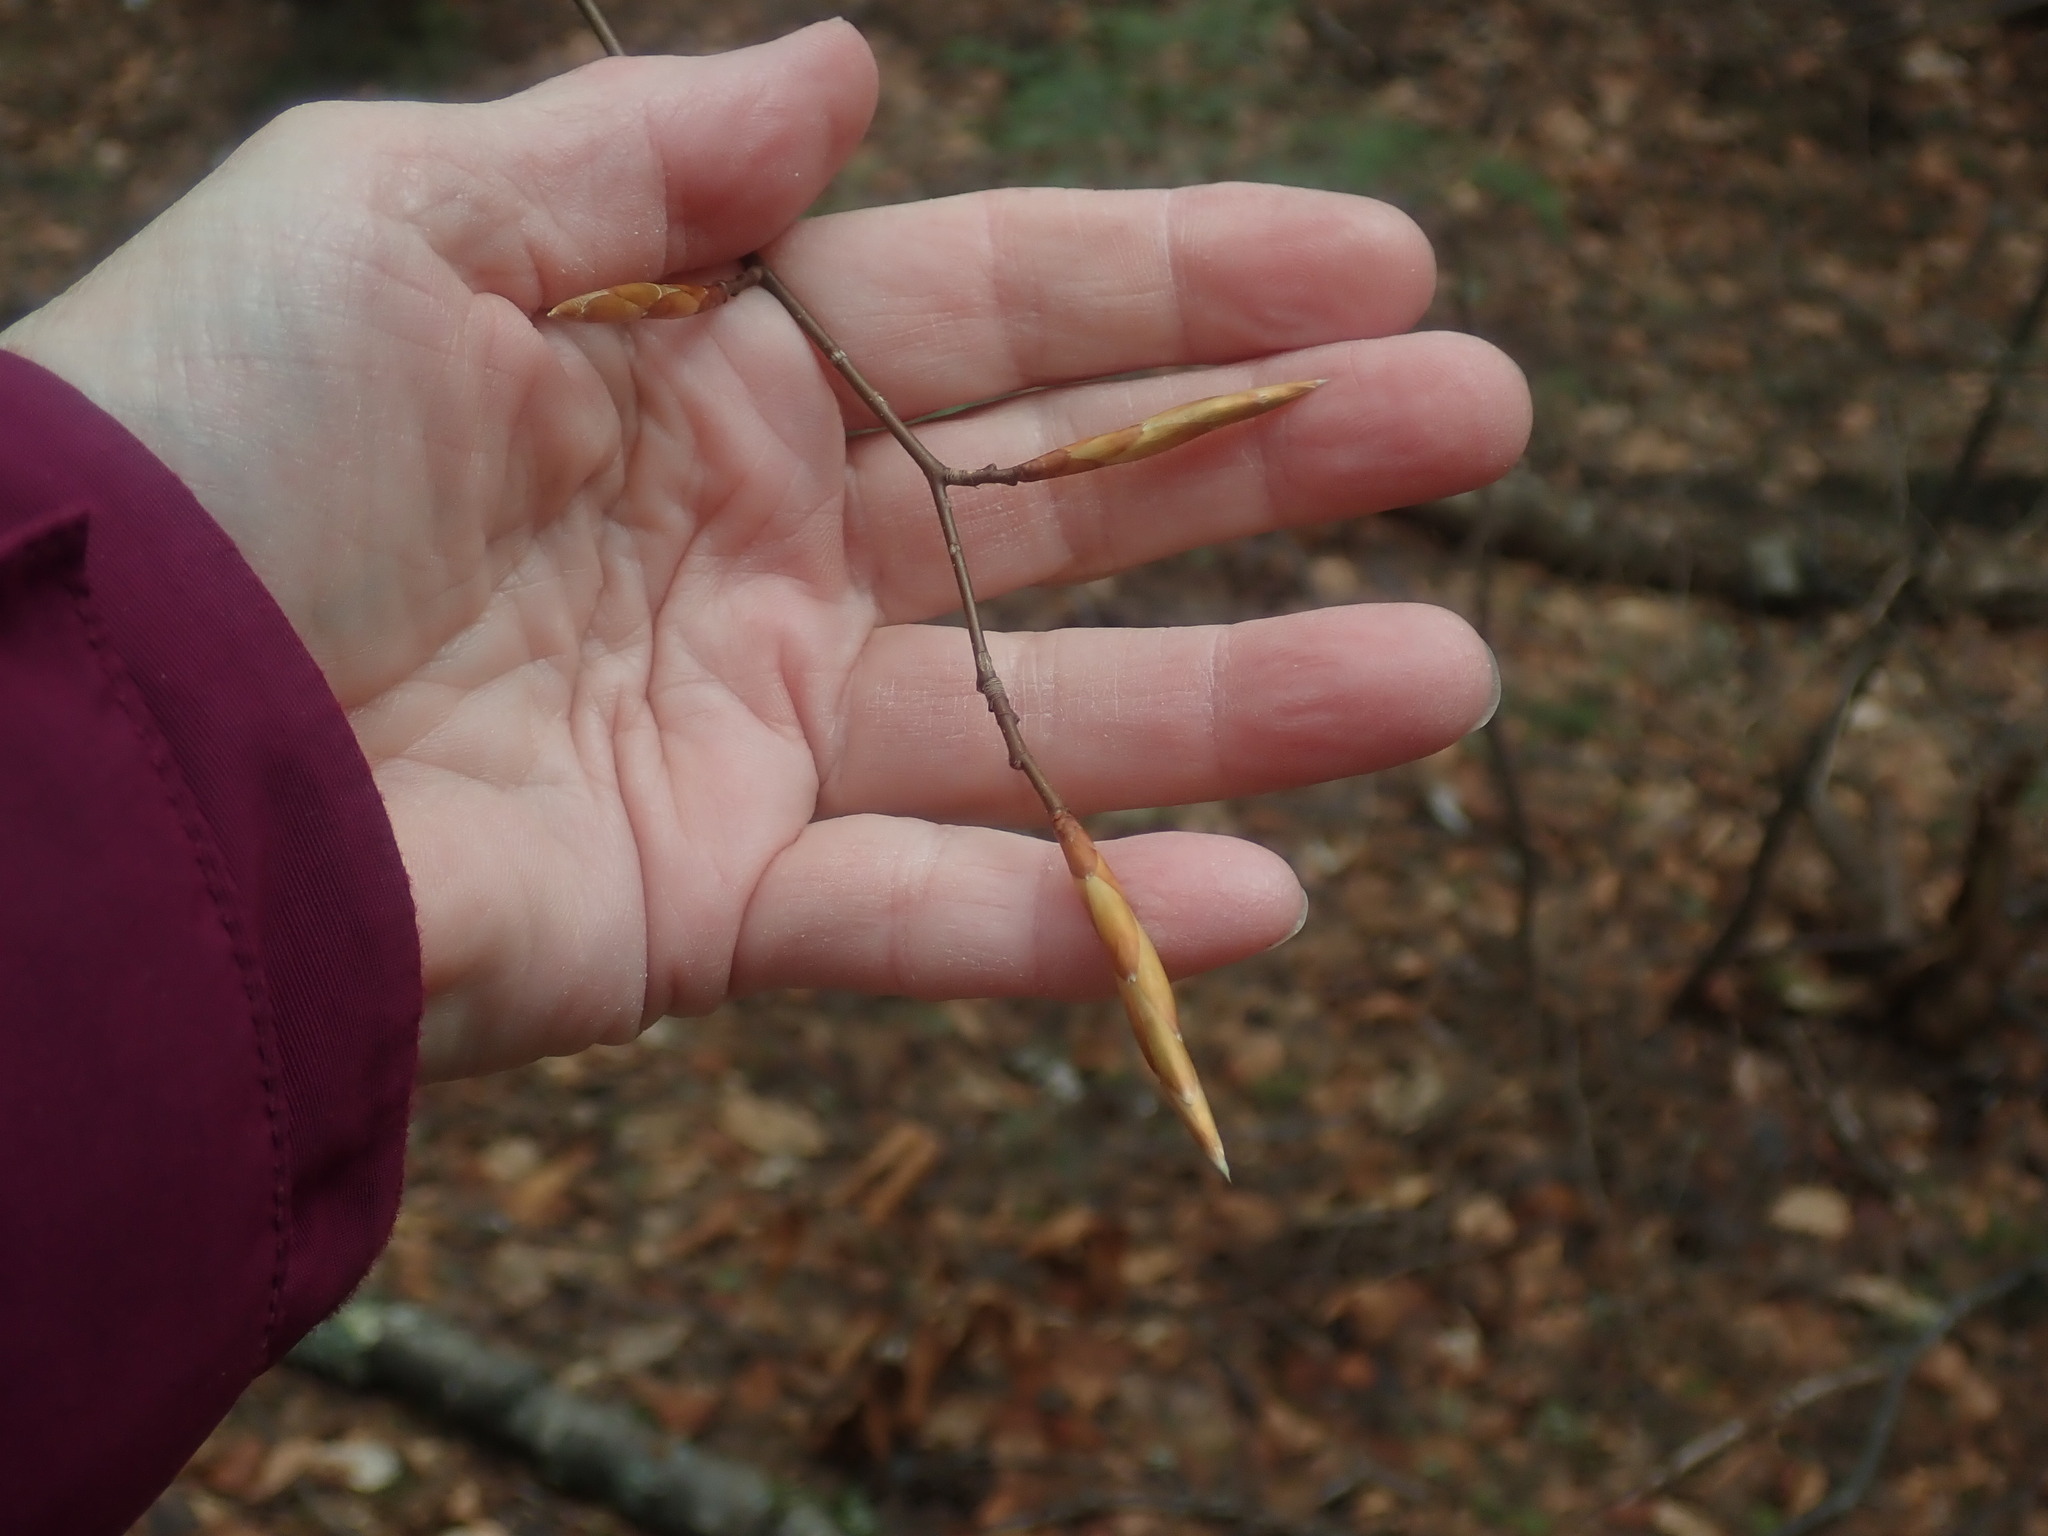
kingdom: Plantae
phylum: Tracheophyta
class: Magnoliopsida
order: Fagales
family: Fagaceae
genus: Fagus
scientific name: Fagus grandifolia
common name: American beech
